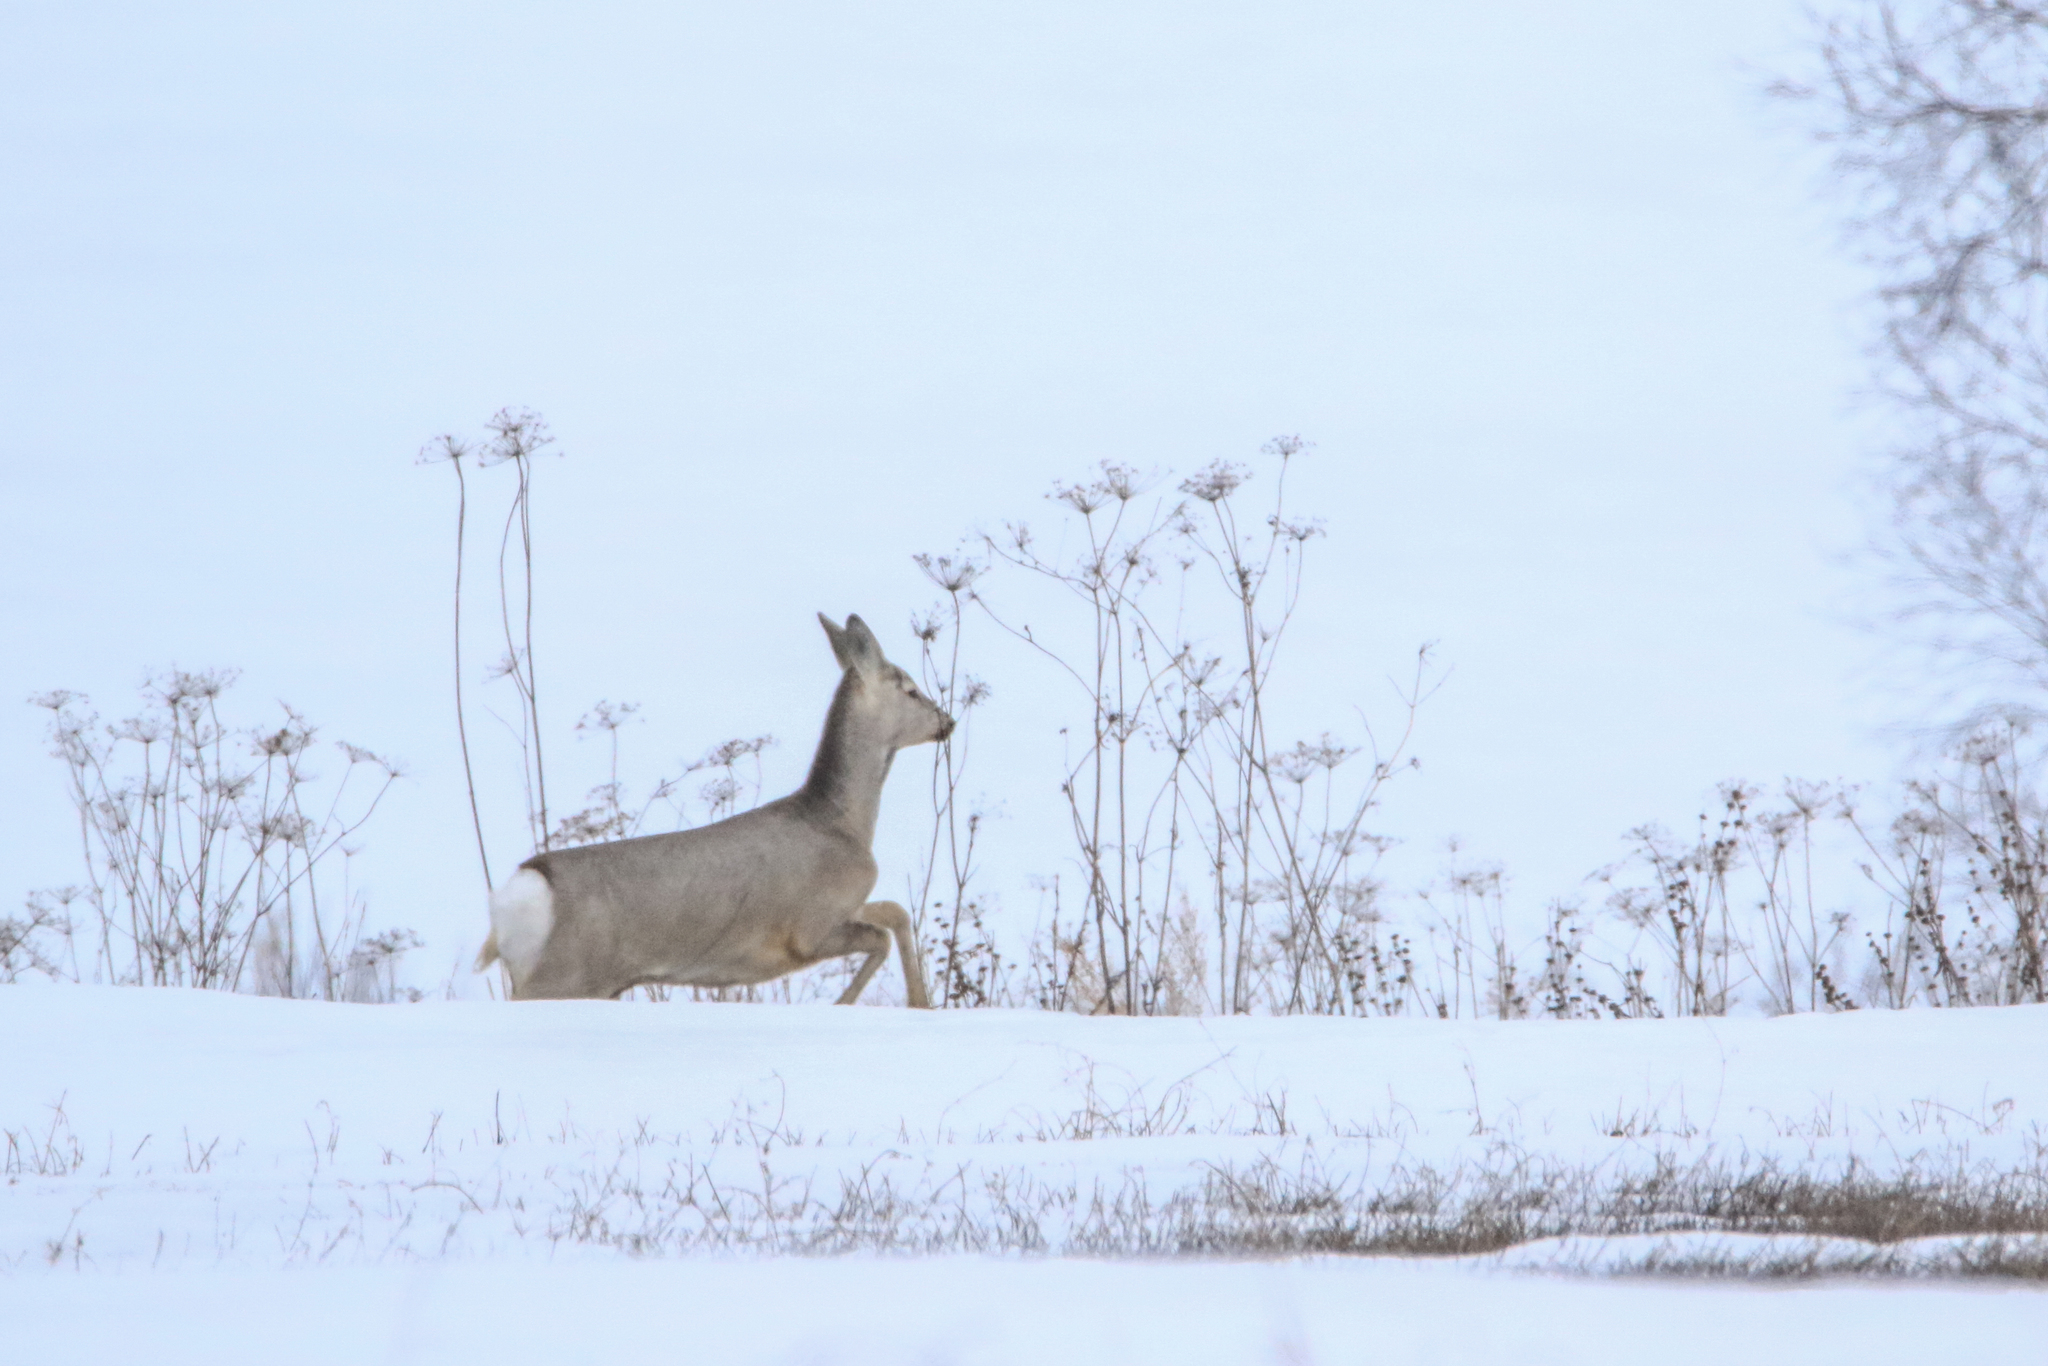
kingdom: Animalia
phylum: Chordata
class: Mammalia
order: Artiodactyla
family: Cervidae
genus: Capreolus
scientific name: Capreolus pygargus
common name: Siberian roe
